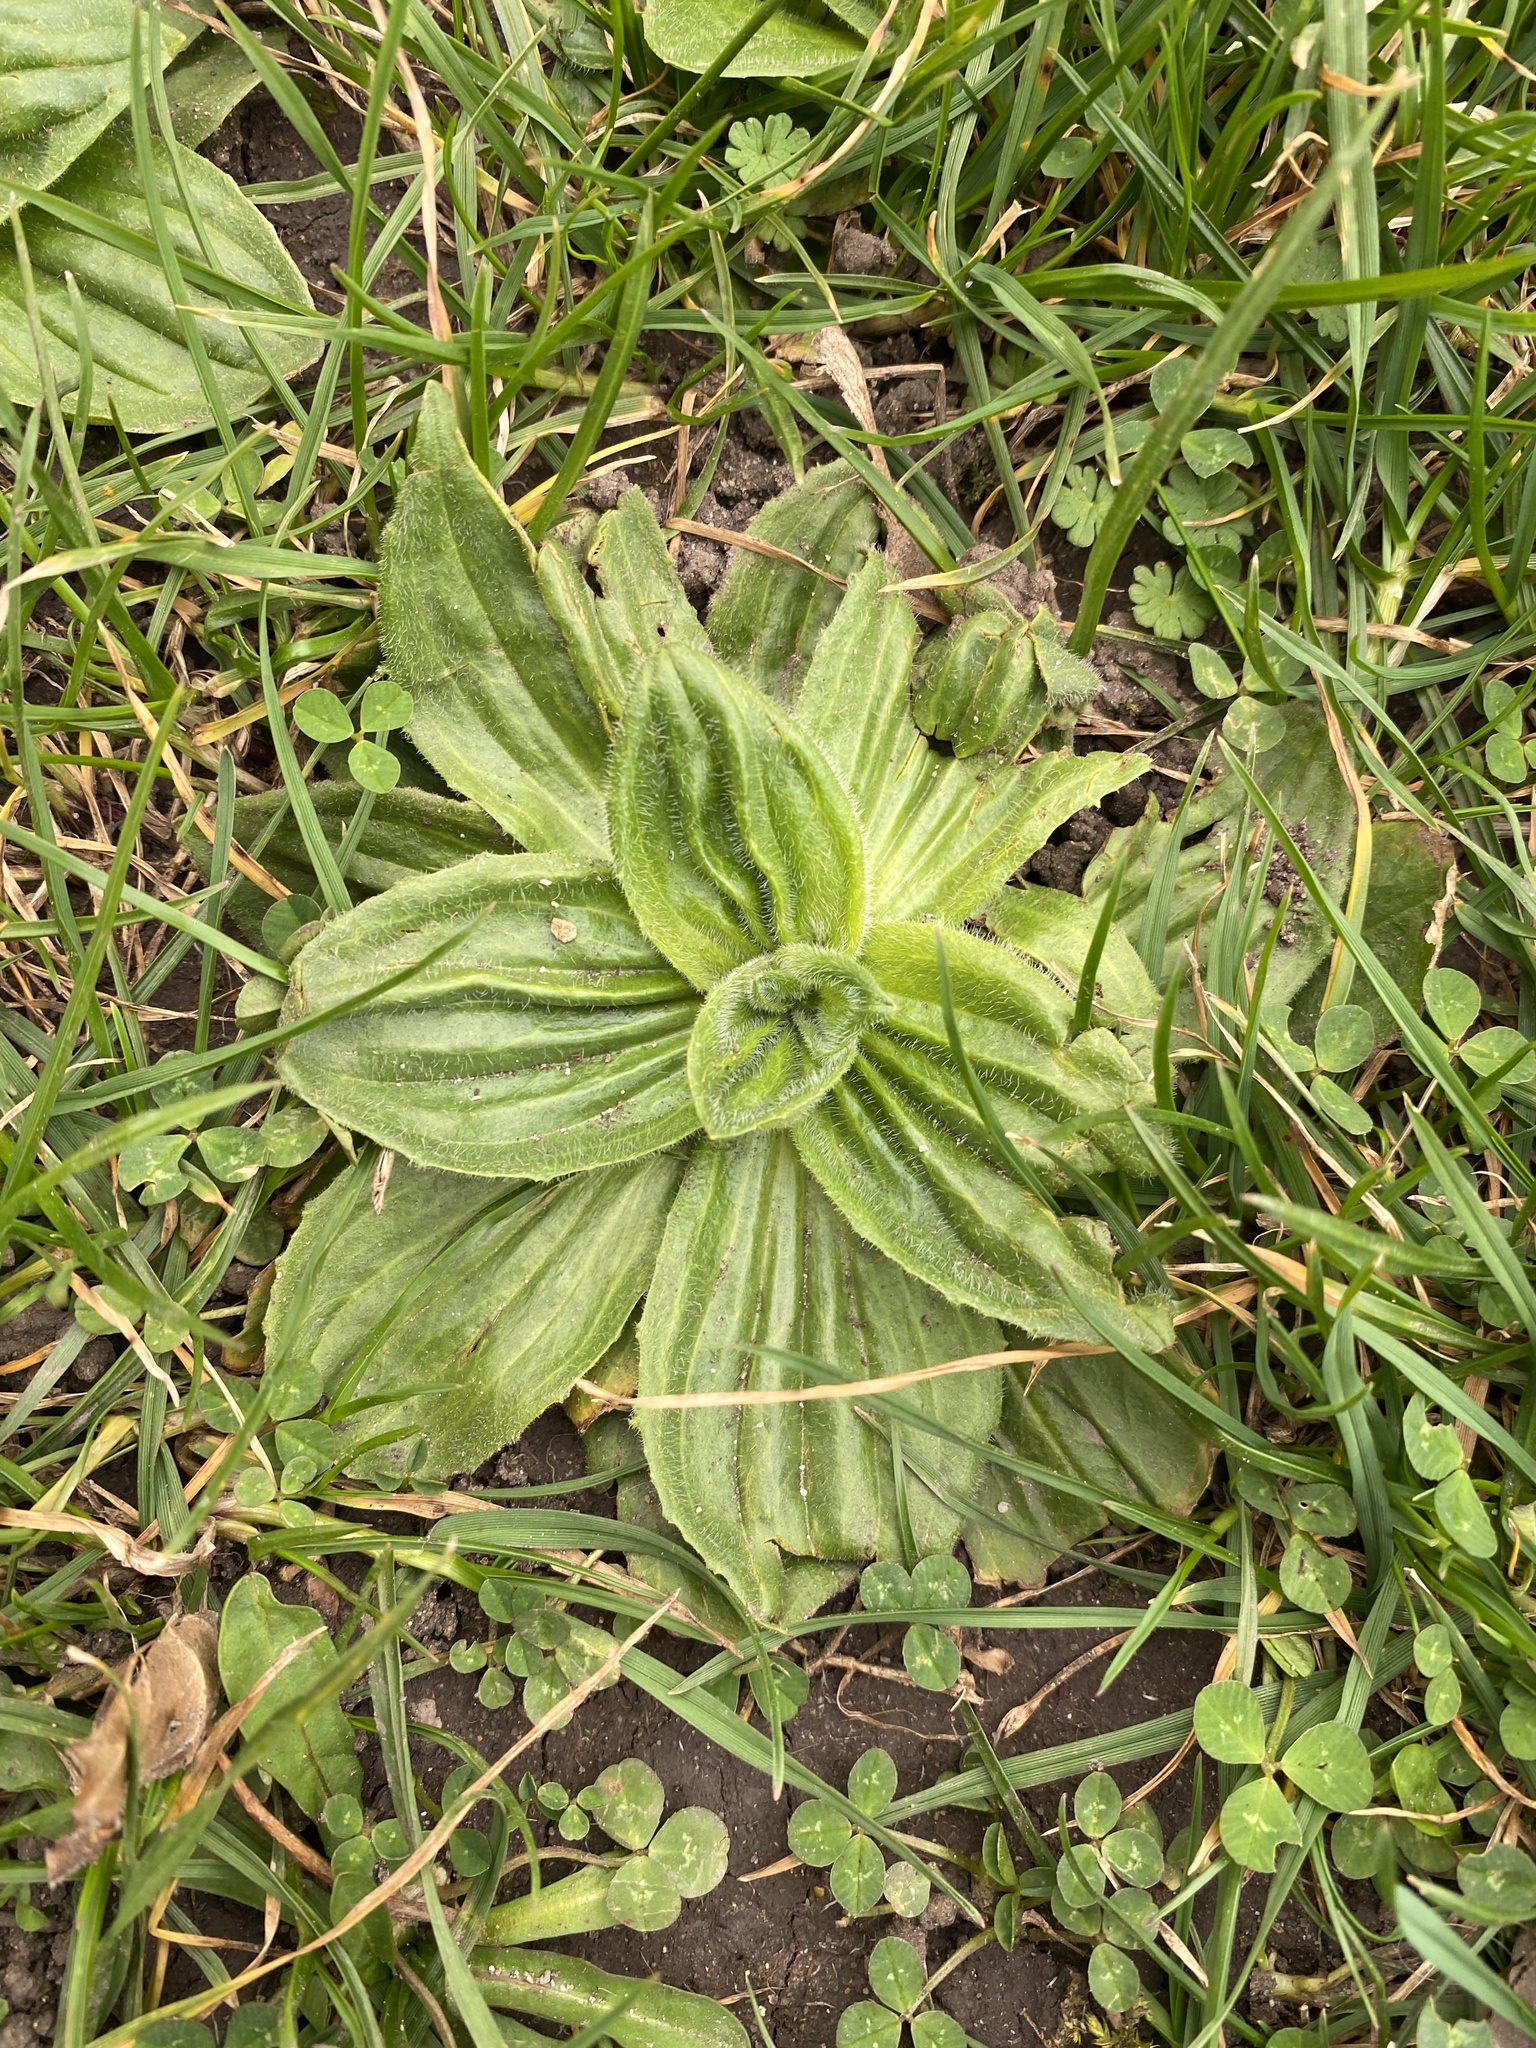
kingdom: Plantae
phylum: Tracheophyta
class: Magnoliopsida
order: Lamiales
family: Plantaginaceae
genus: Plantago
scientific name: Plantago media
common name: Hoary plantain
